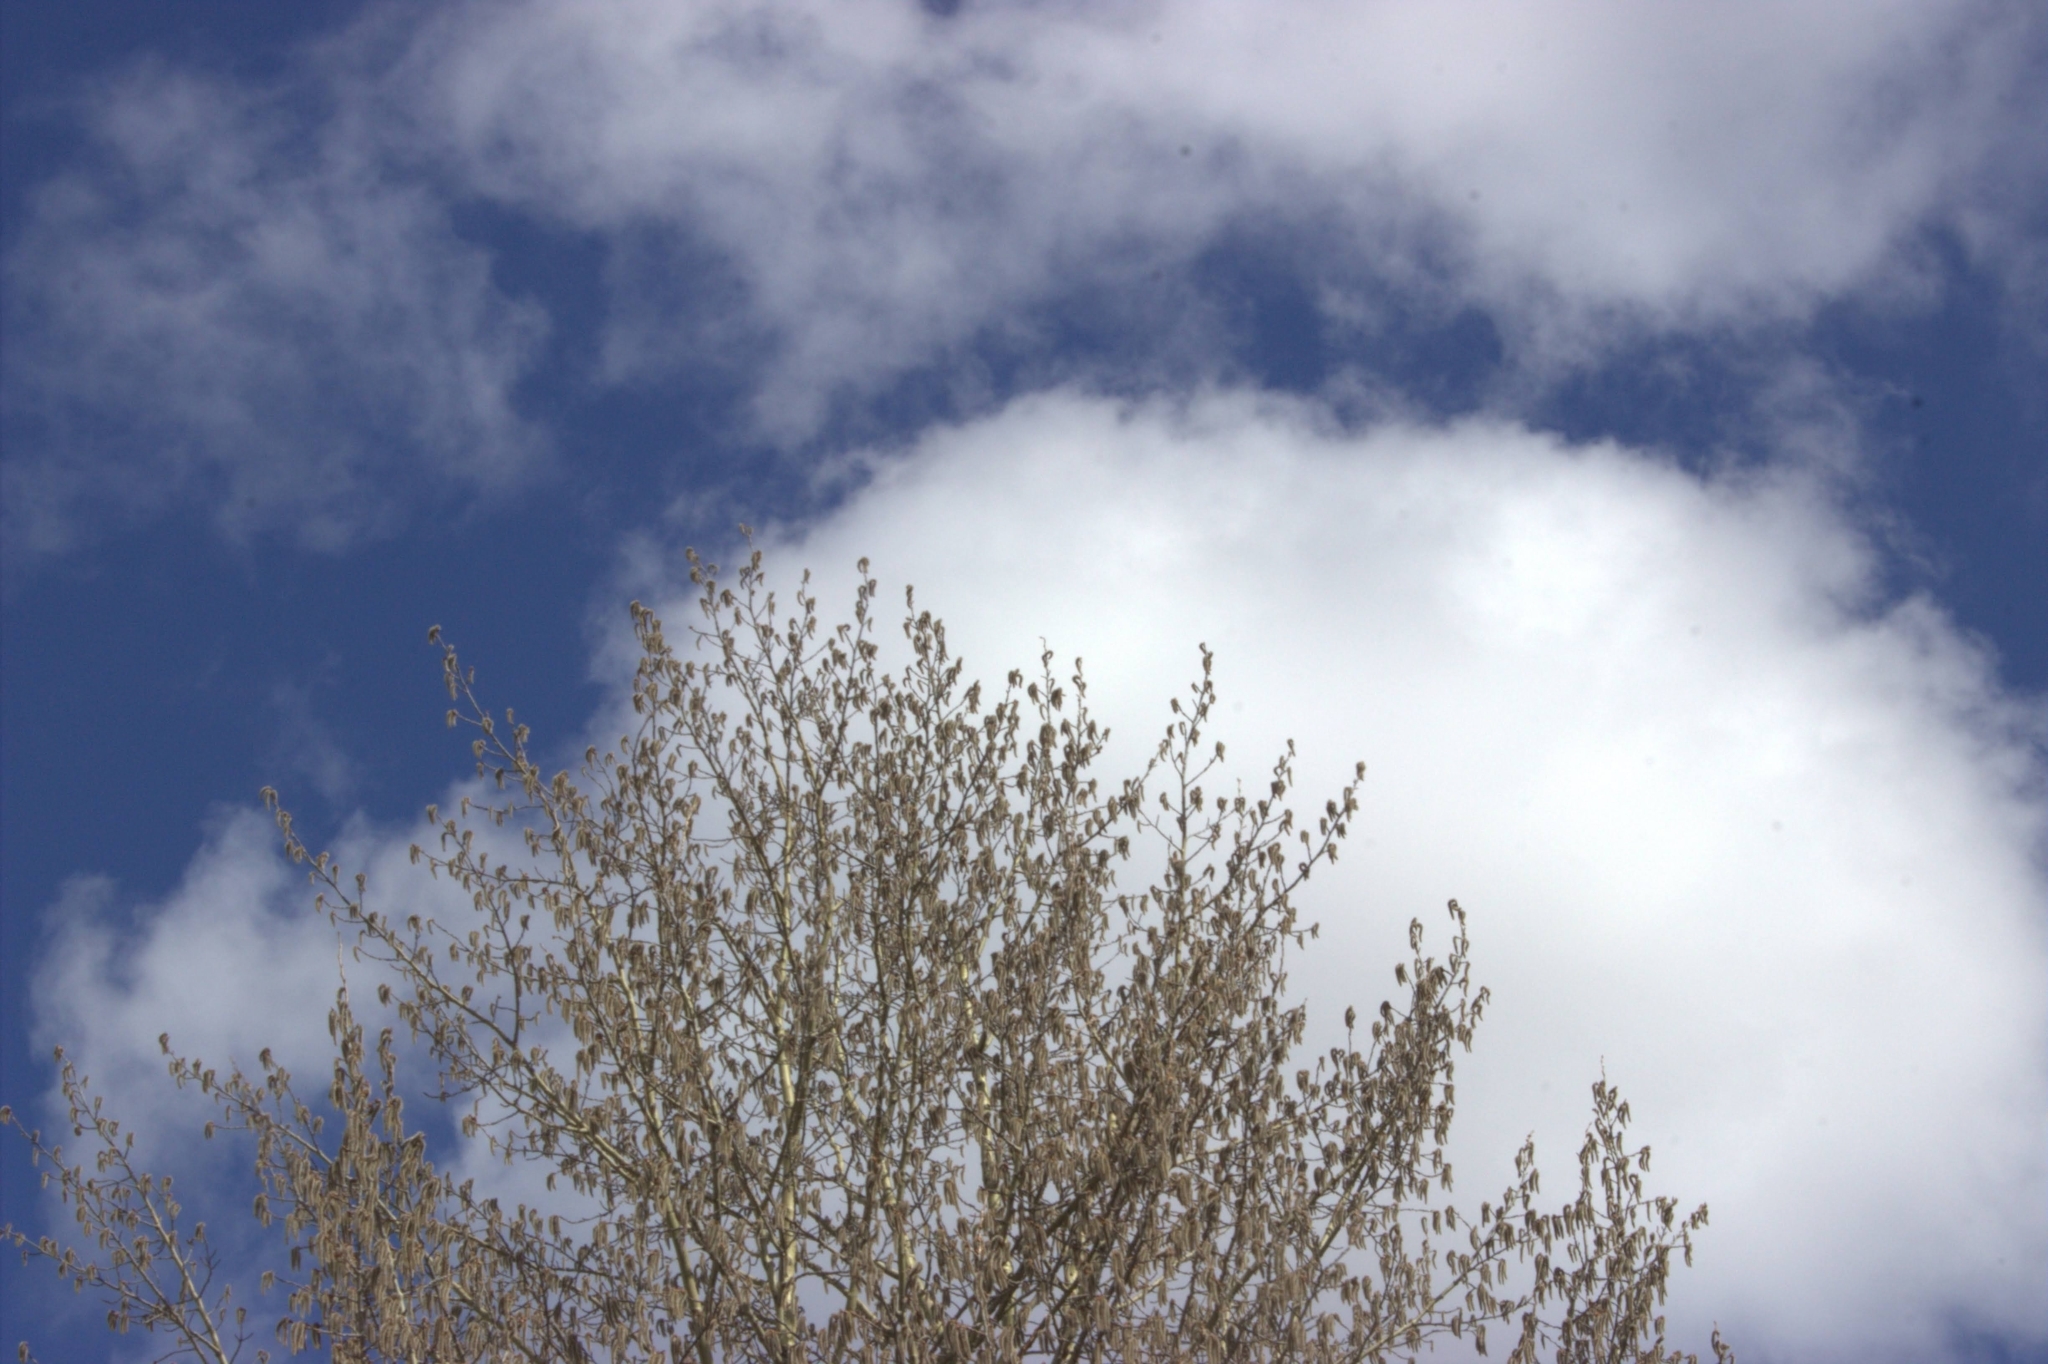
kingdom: Plantae
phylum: Tracheophyta
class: Magnoliopsida
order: Malpighiales
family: Salicaceae
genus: Populus
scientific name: Populus tremula
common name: European aspen
